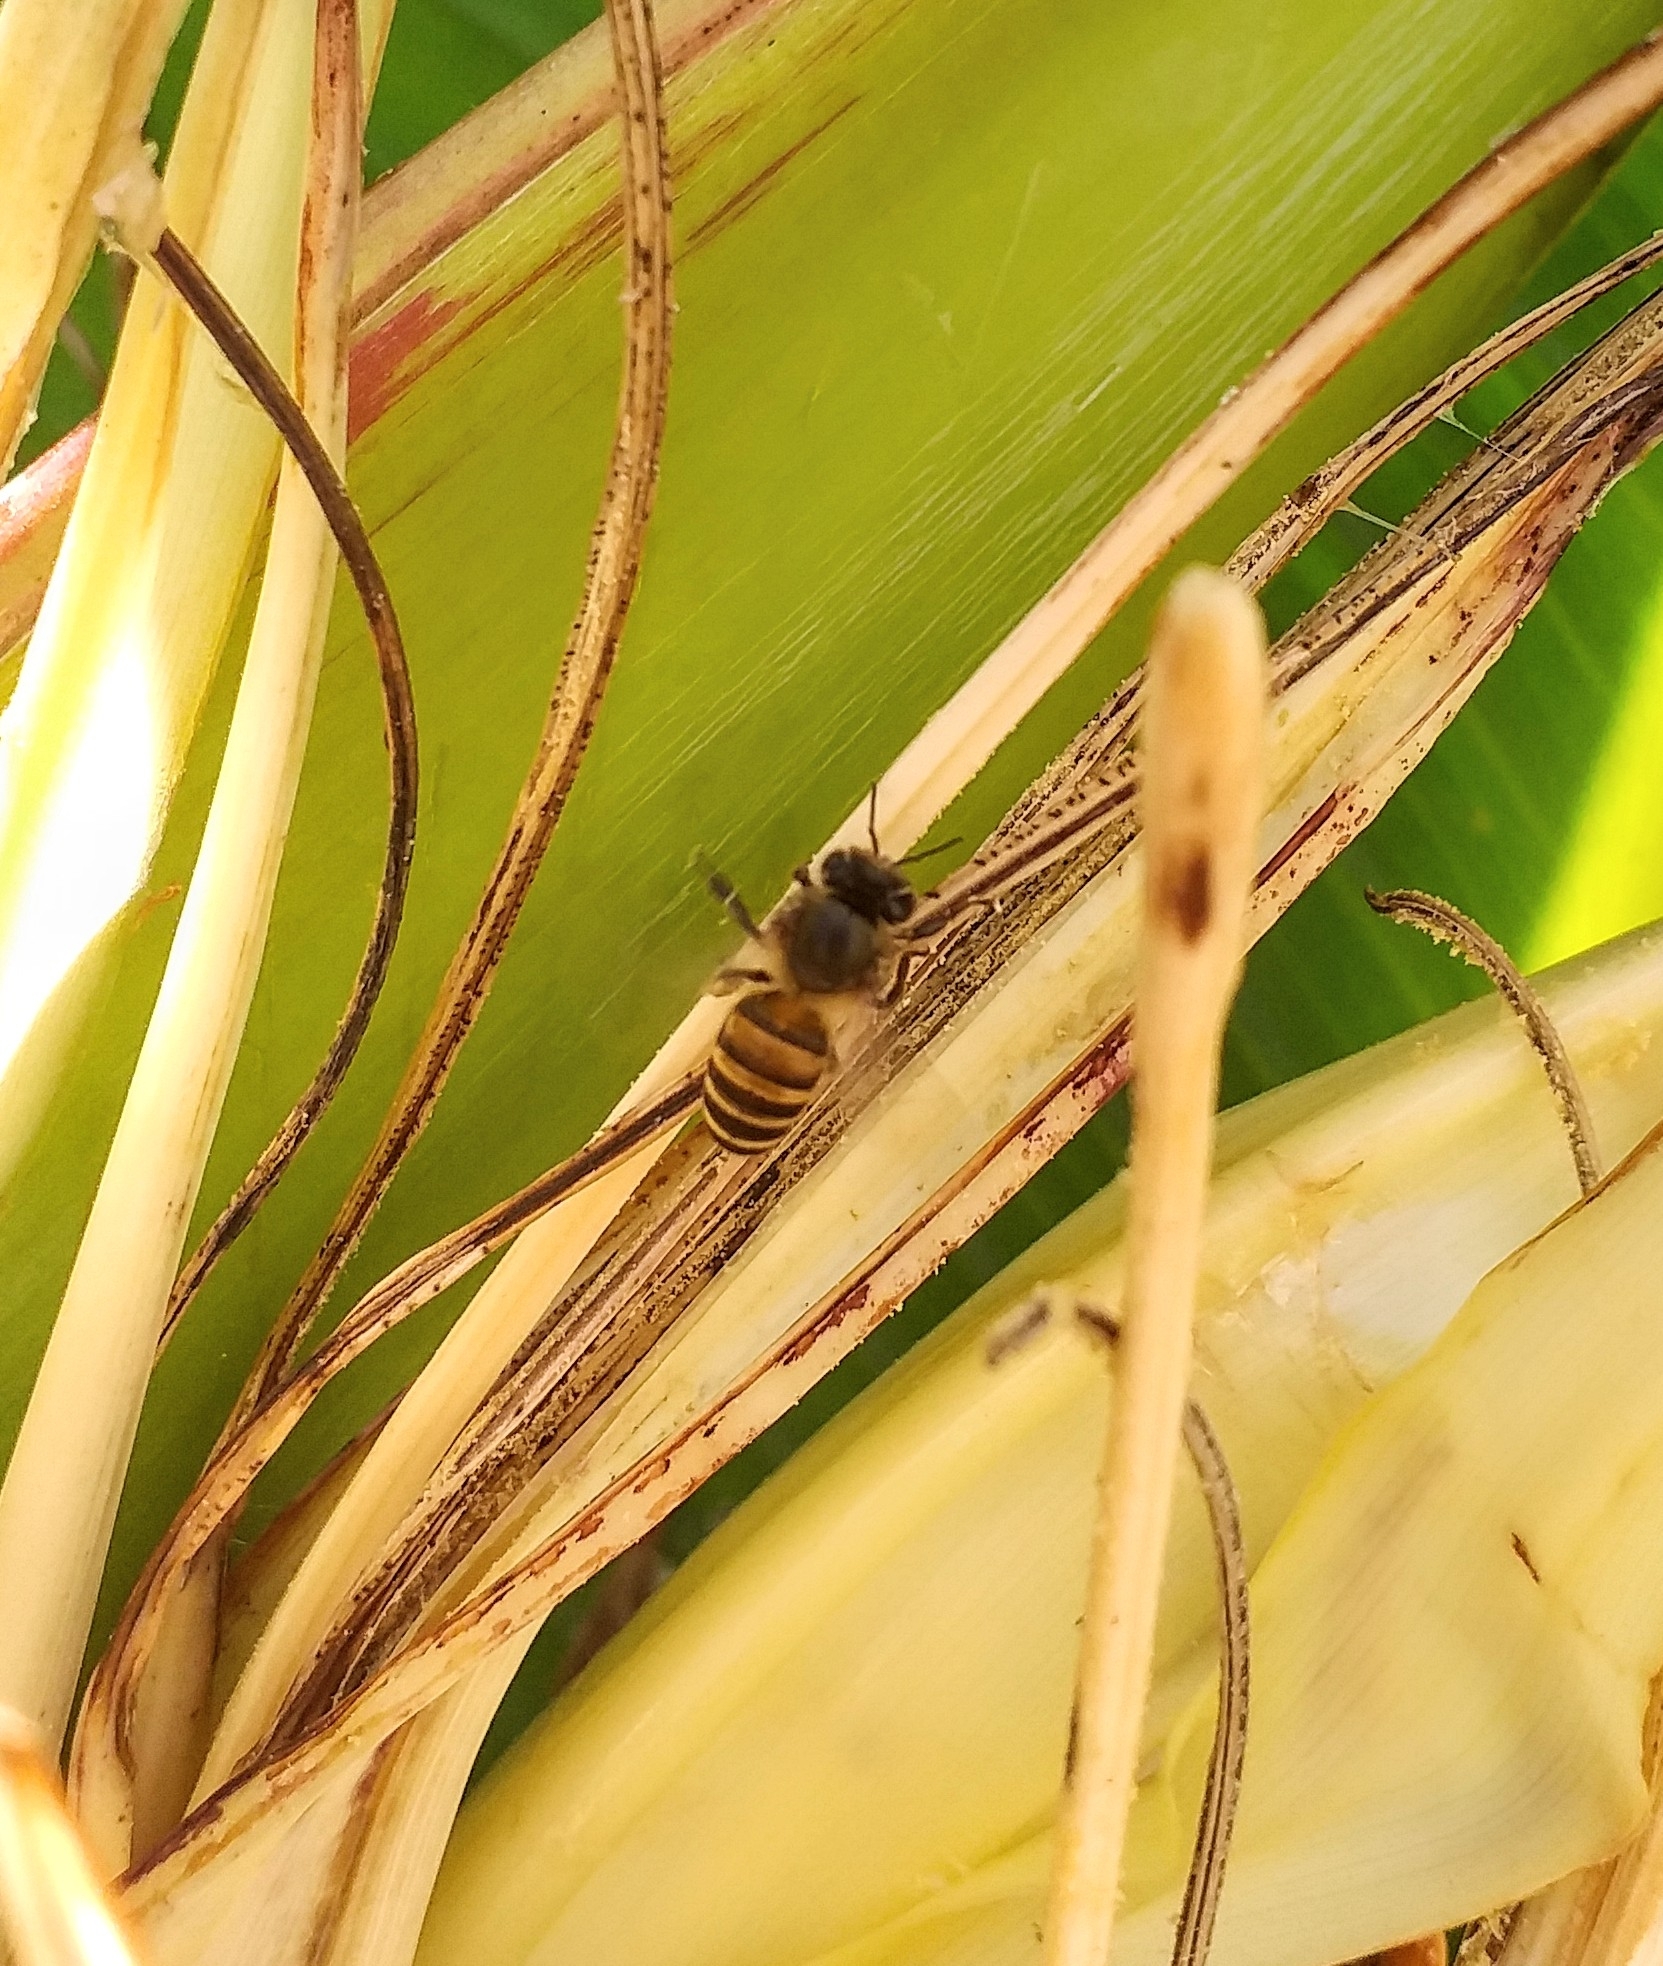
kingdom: Animalia
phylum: Arthropoda
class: Insecta
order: Hymenoptera
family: Apidae
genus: Apis
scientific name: Apis cerana
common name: Honey bee
